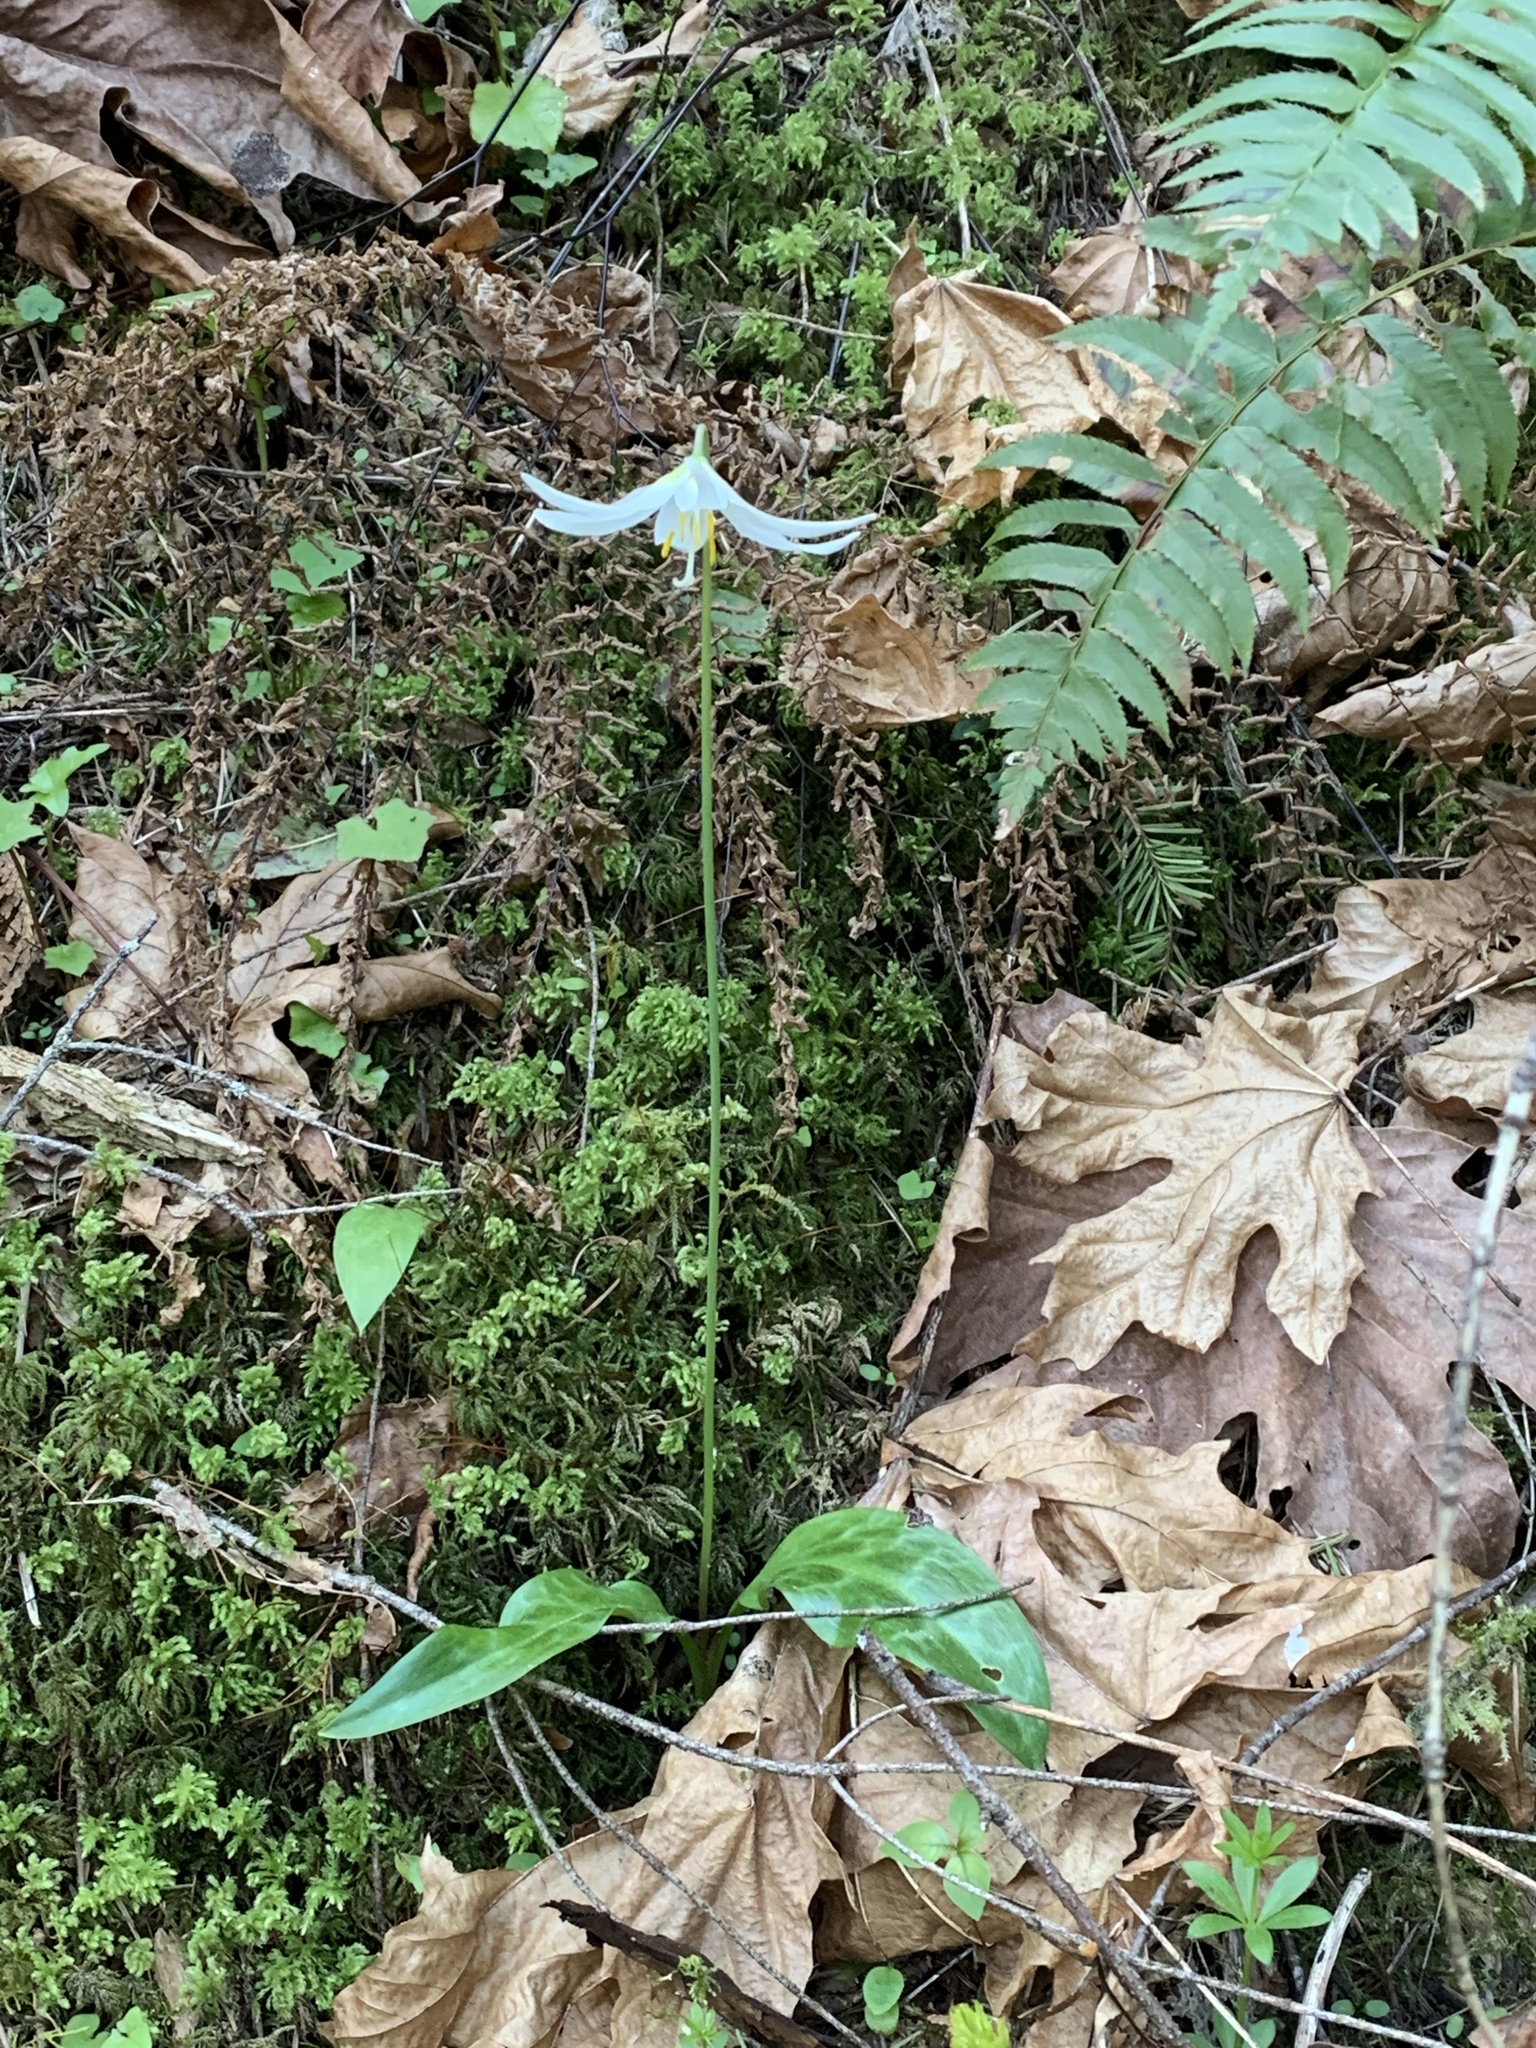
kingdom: Plantae
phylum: Tracheophyta
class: Liliopsida
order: Liliales
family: Liliaceae
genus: Erythronium
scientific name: Erythronium oregonum
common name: Giant adder's-tongue
